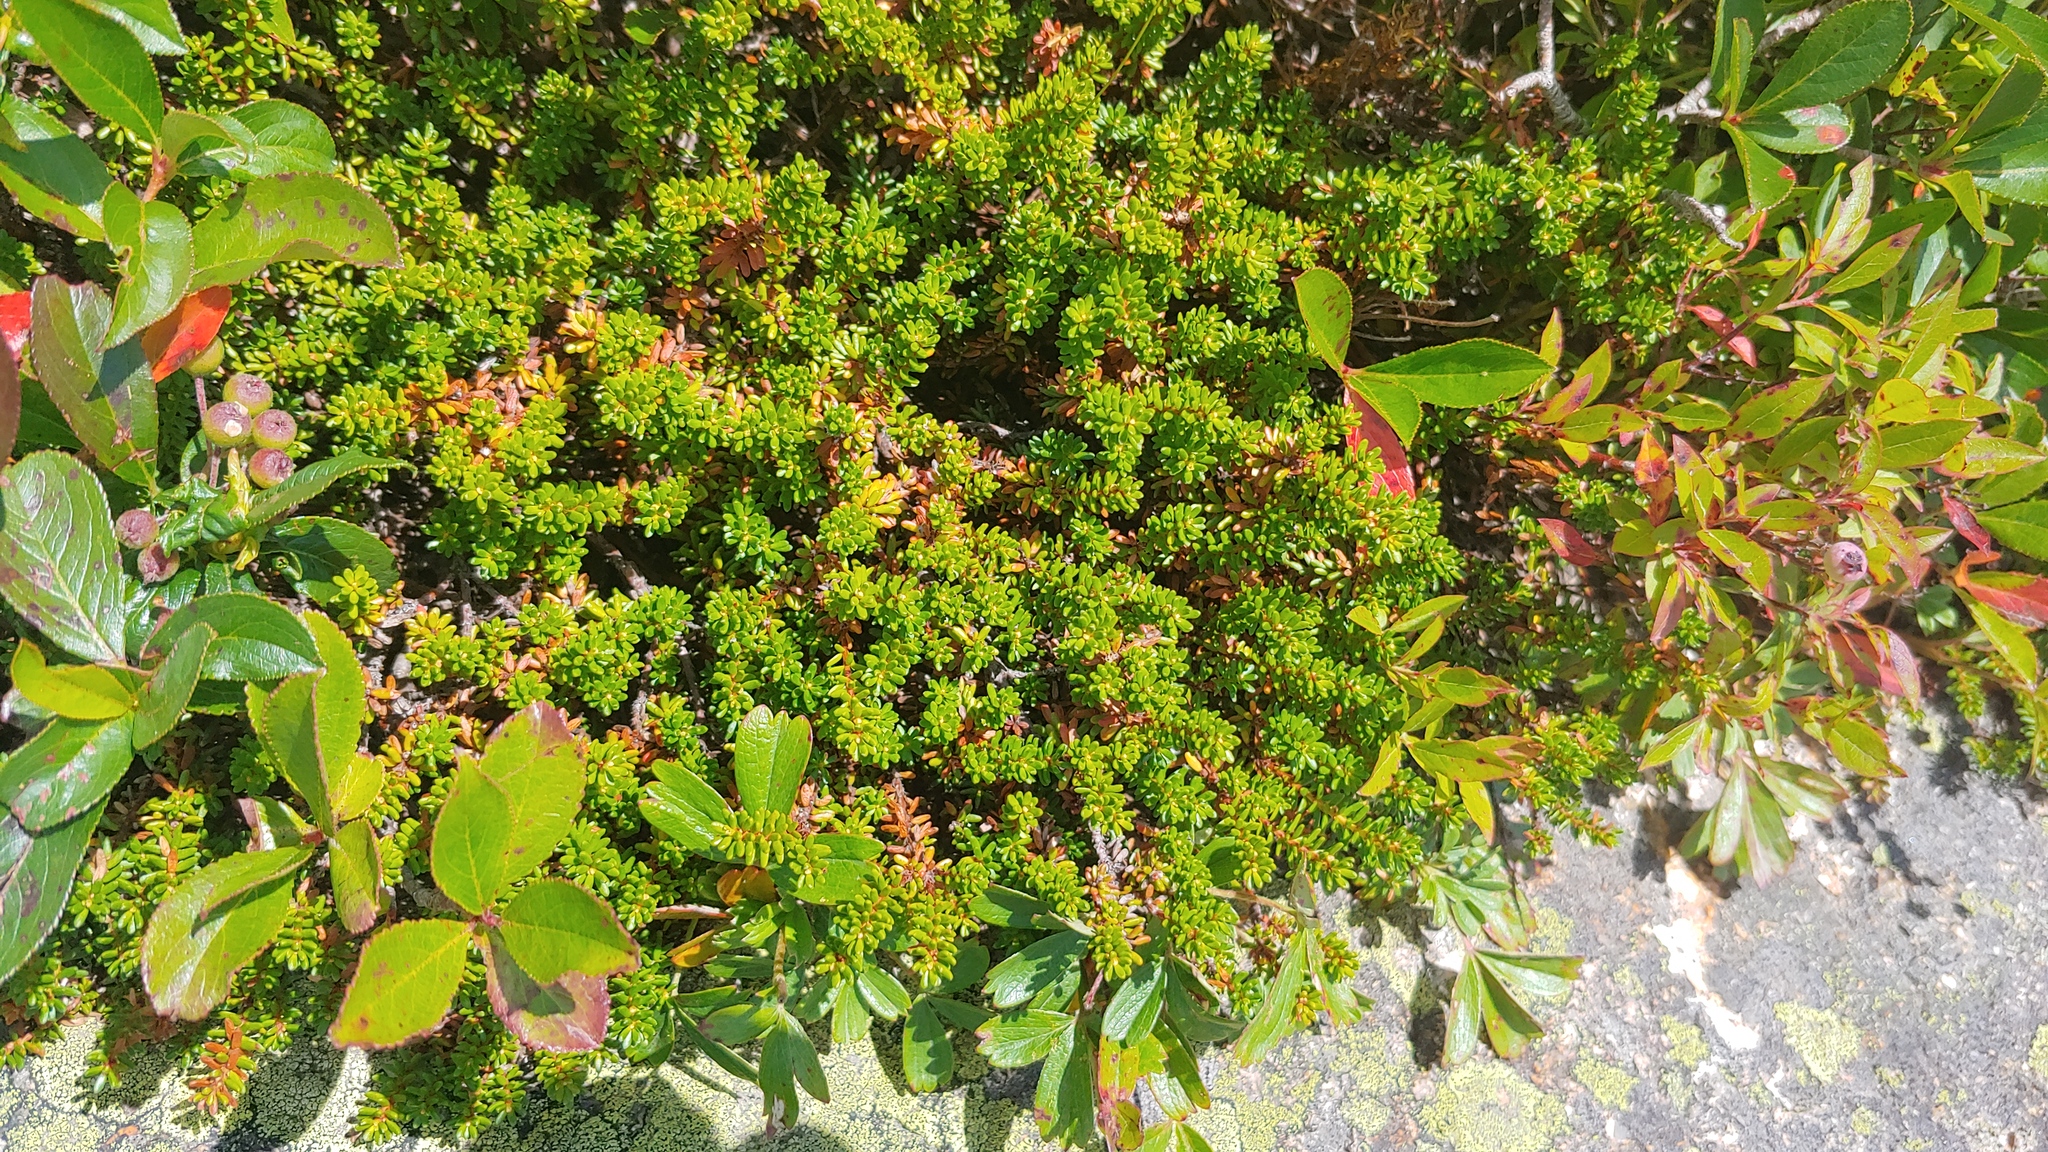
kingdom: Plantae
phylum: Tracheophyta
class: Magnoliopsida
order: Ericales
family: Ericaceae
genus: Empetrum
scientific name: Empetrum nigrum
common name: Black crowberry
